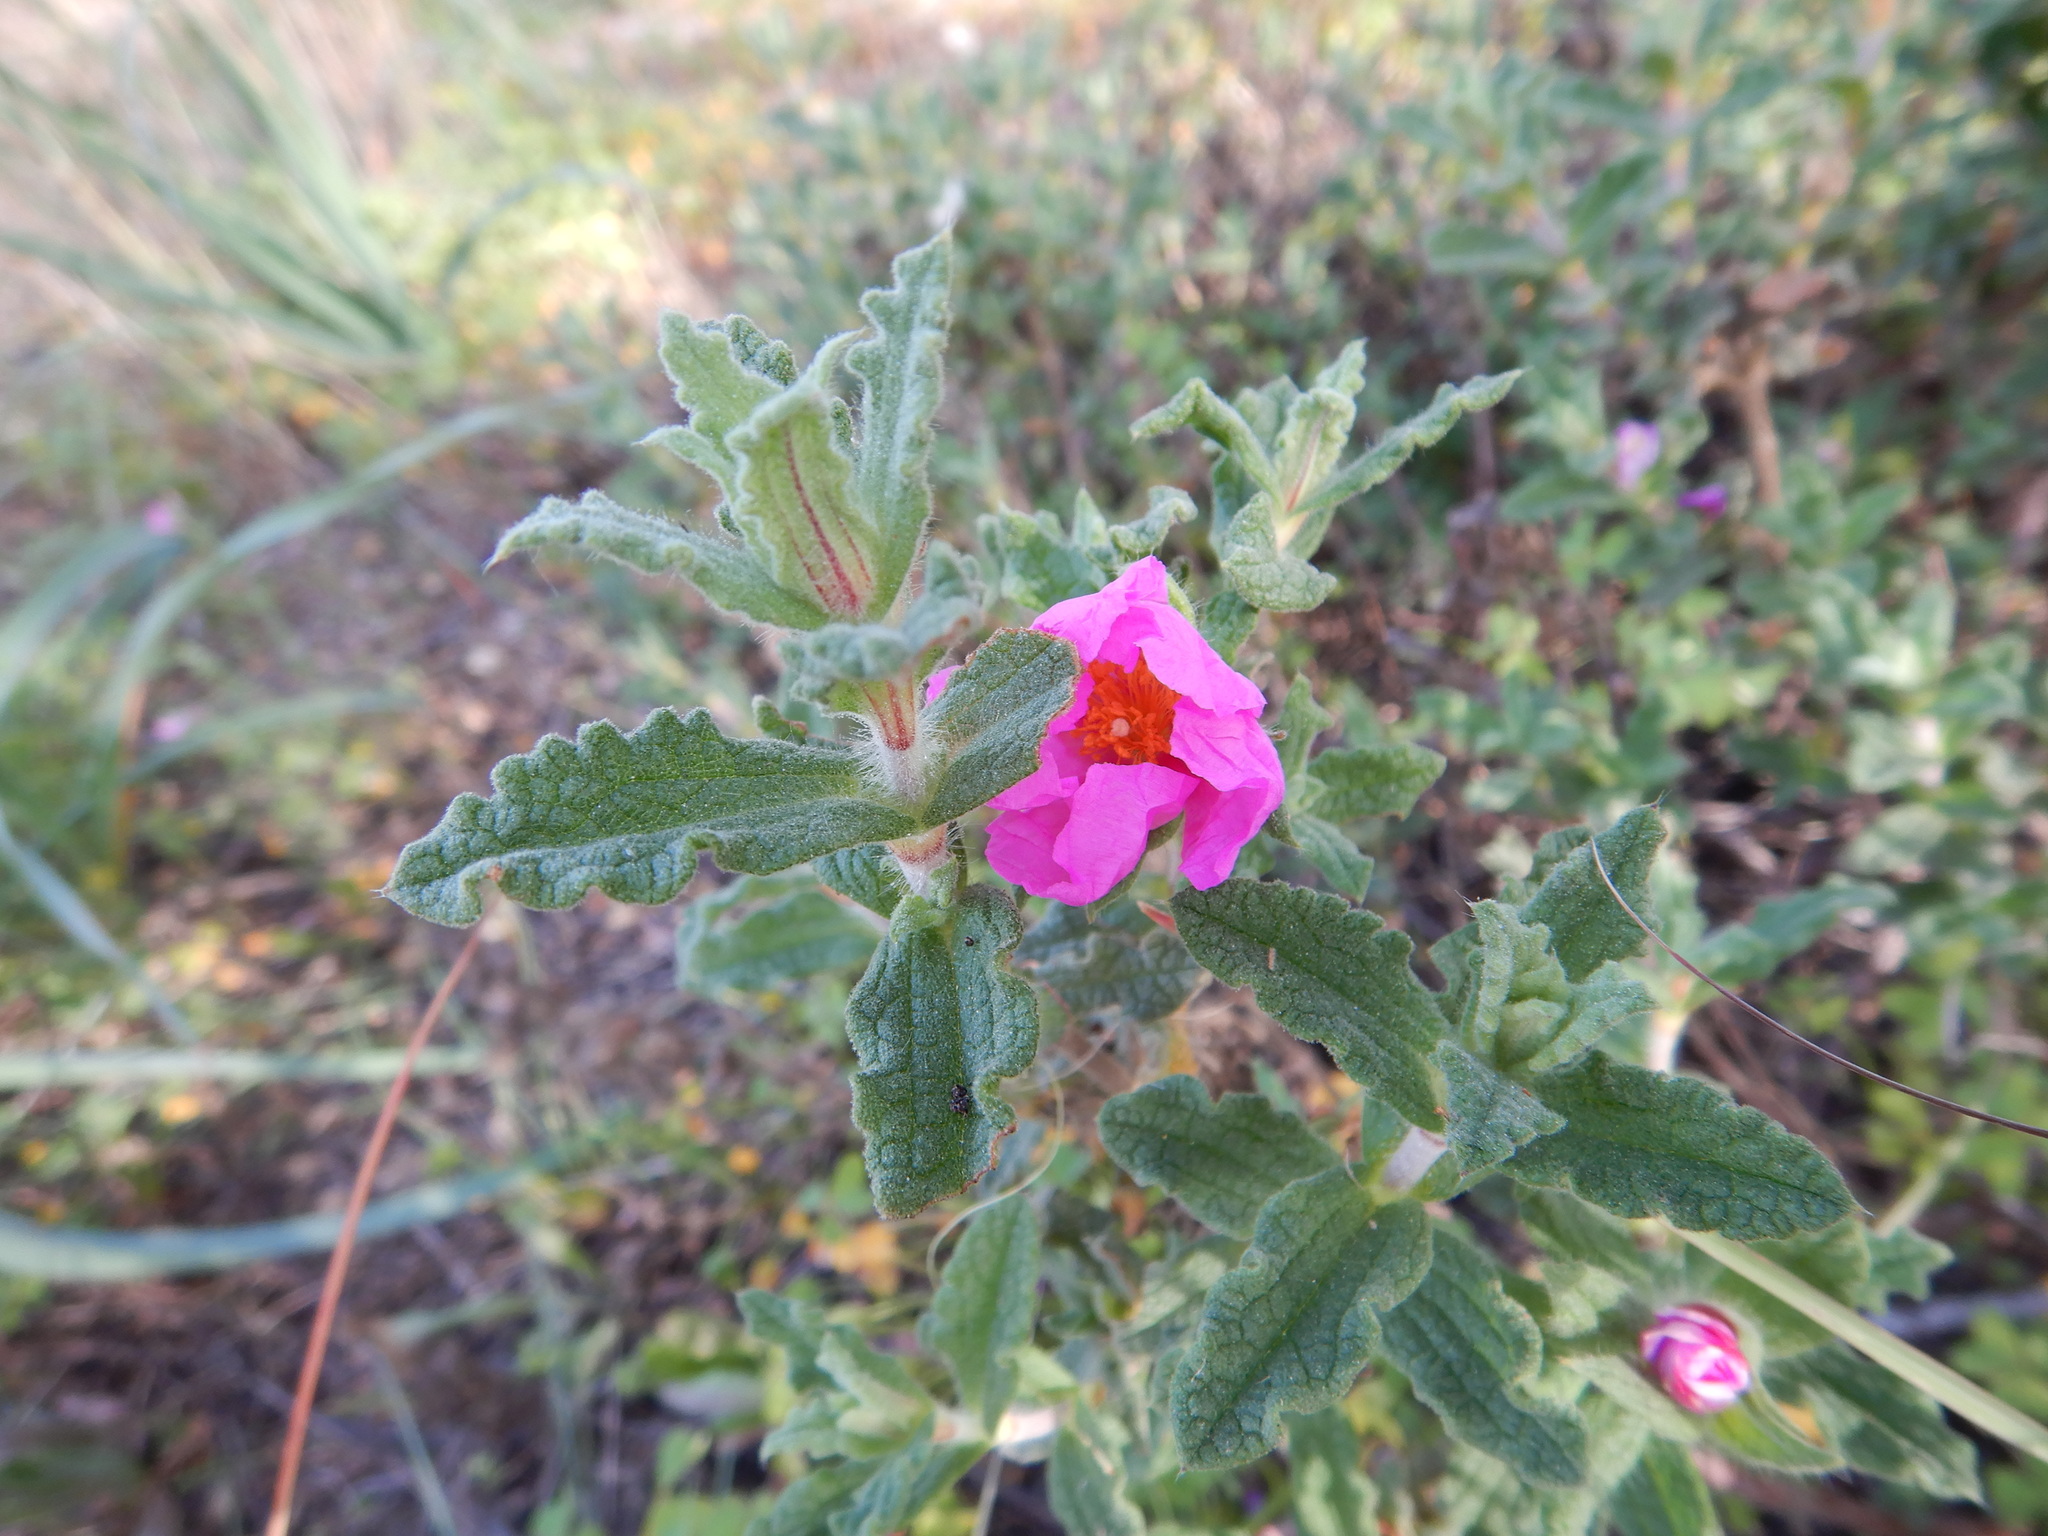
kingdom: Plantae
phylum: Tracheophyta
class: Magnoliopsida
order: Malvales
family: Cistaceae
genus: Cistus
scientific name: Cistus crispus
